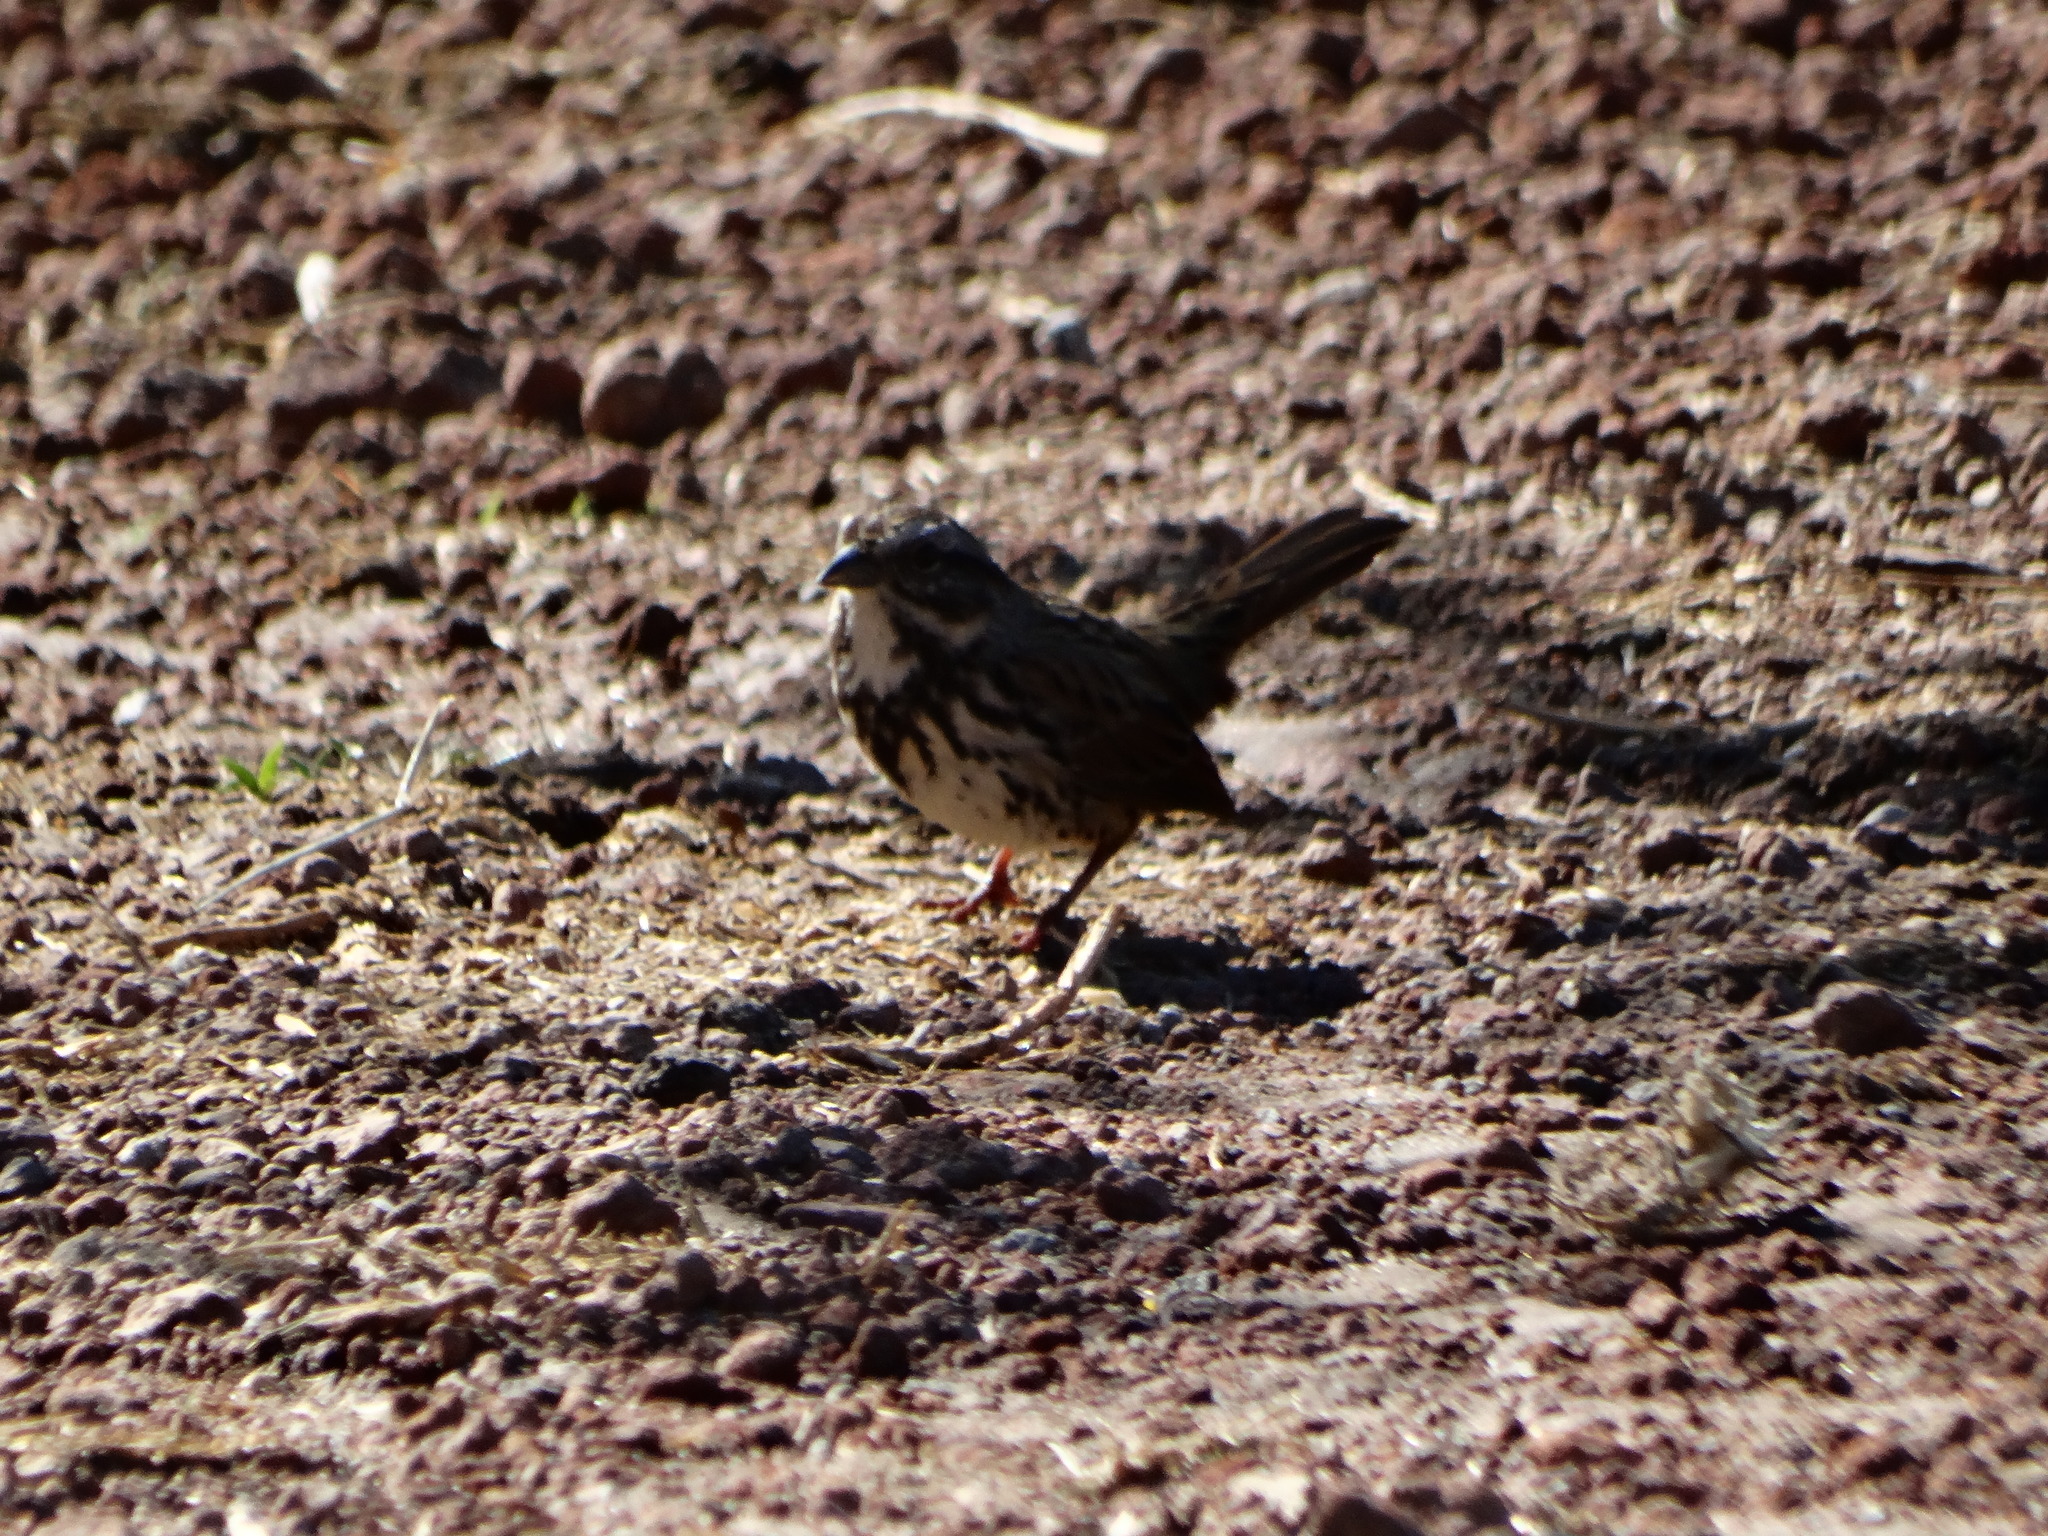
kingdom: Animalia
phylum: Chordata
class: Aves
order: Passeriformes
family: Passerellidae
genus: Melospiza
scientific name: Melospiza melodia
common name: Song sparrow
